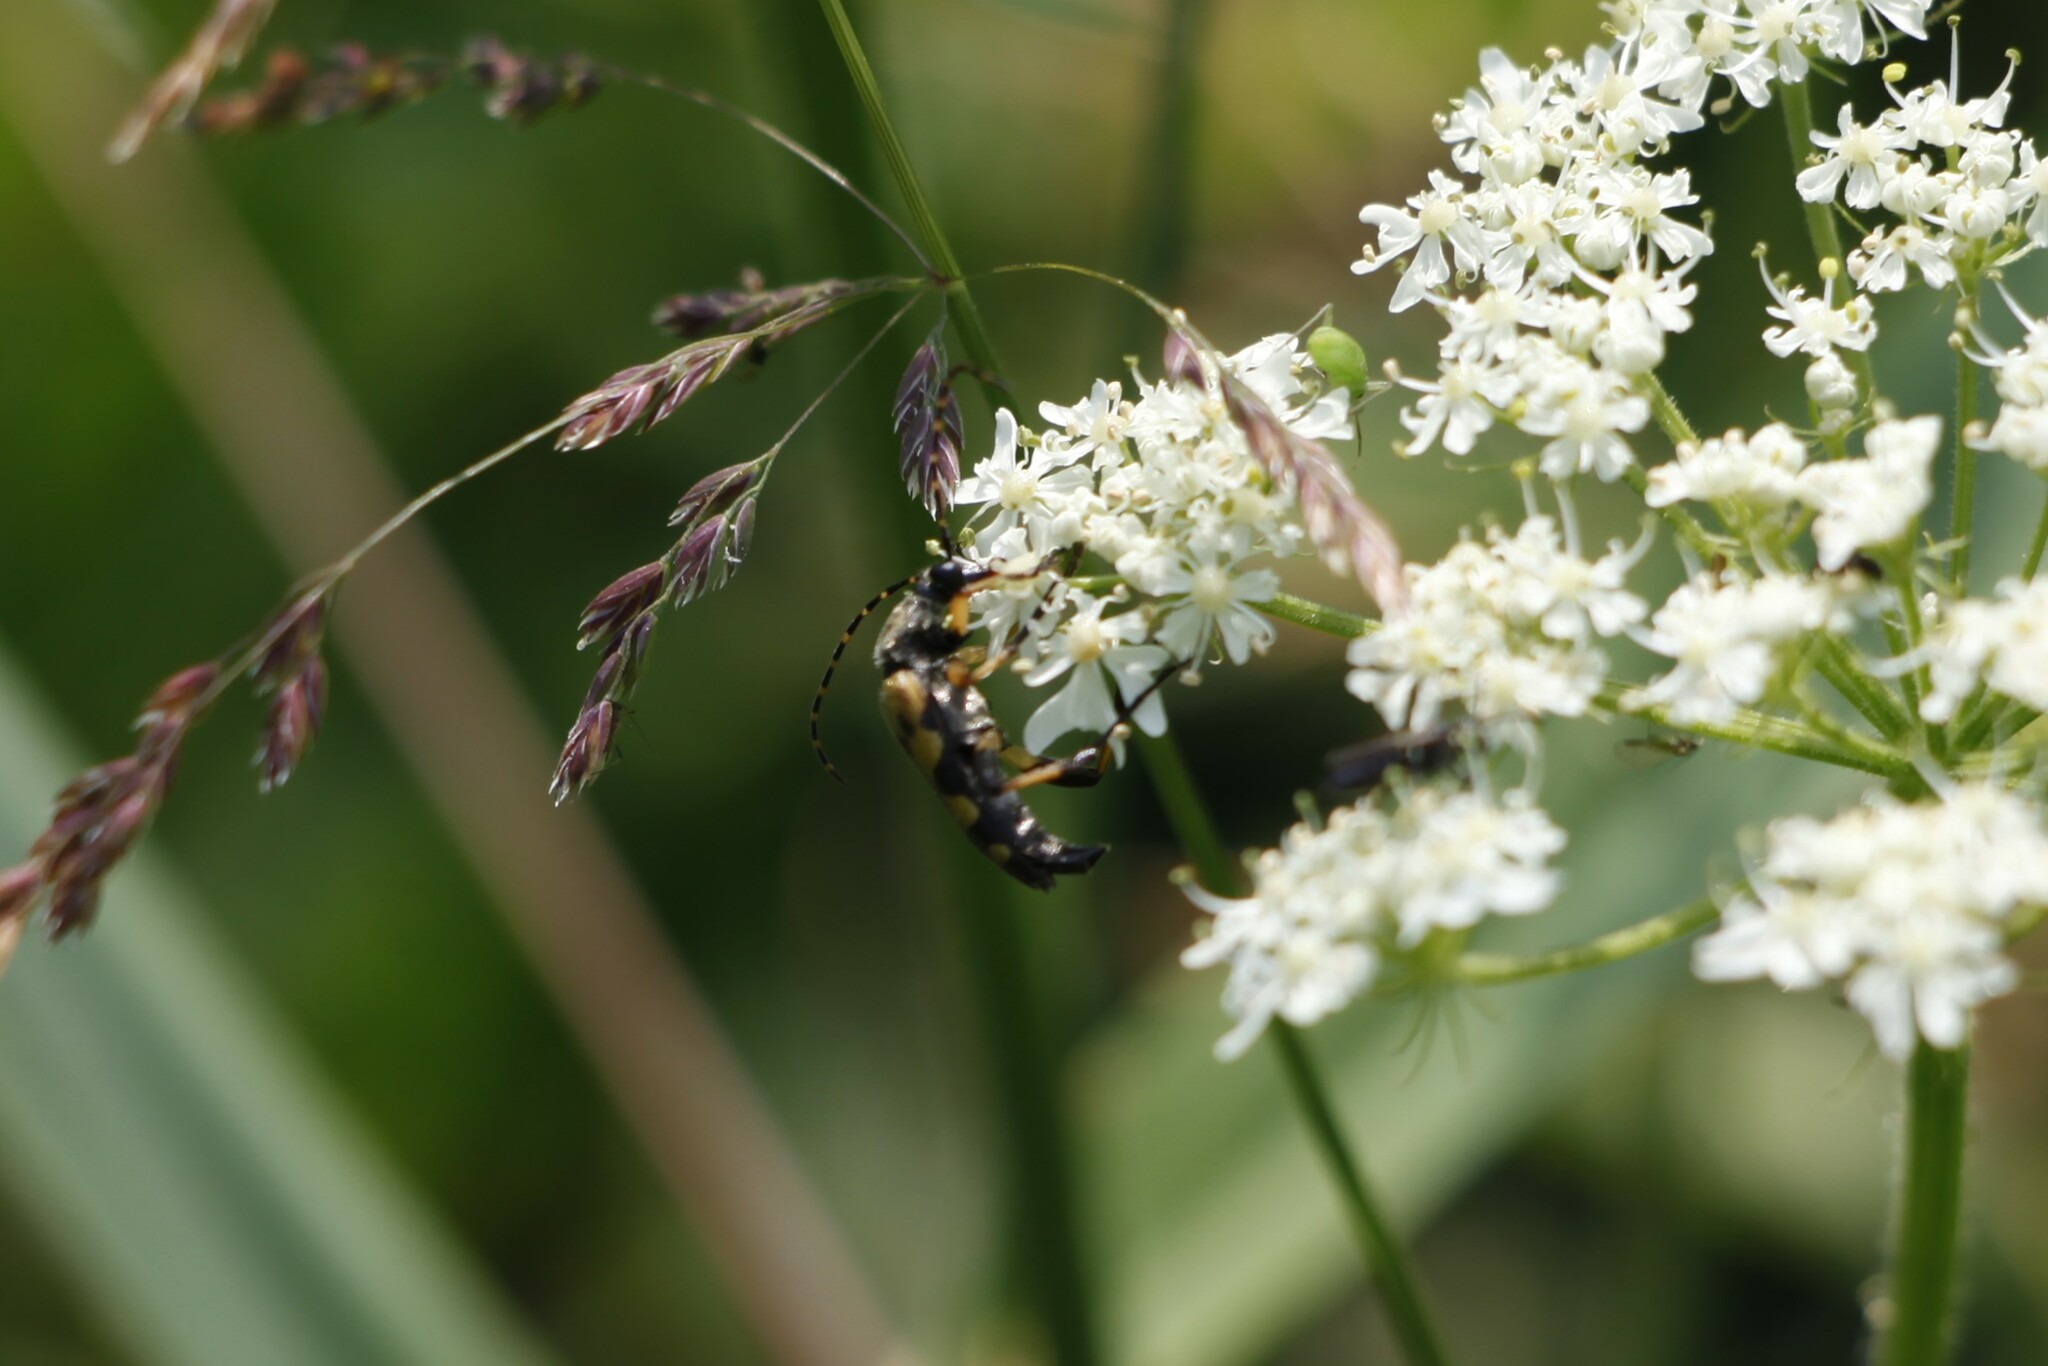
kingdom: Animalia
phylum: Arthropoda
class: Insecta
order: Coleoptera
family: Cerambycidae
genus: Rutpela
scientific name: Rutpela maculata
